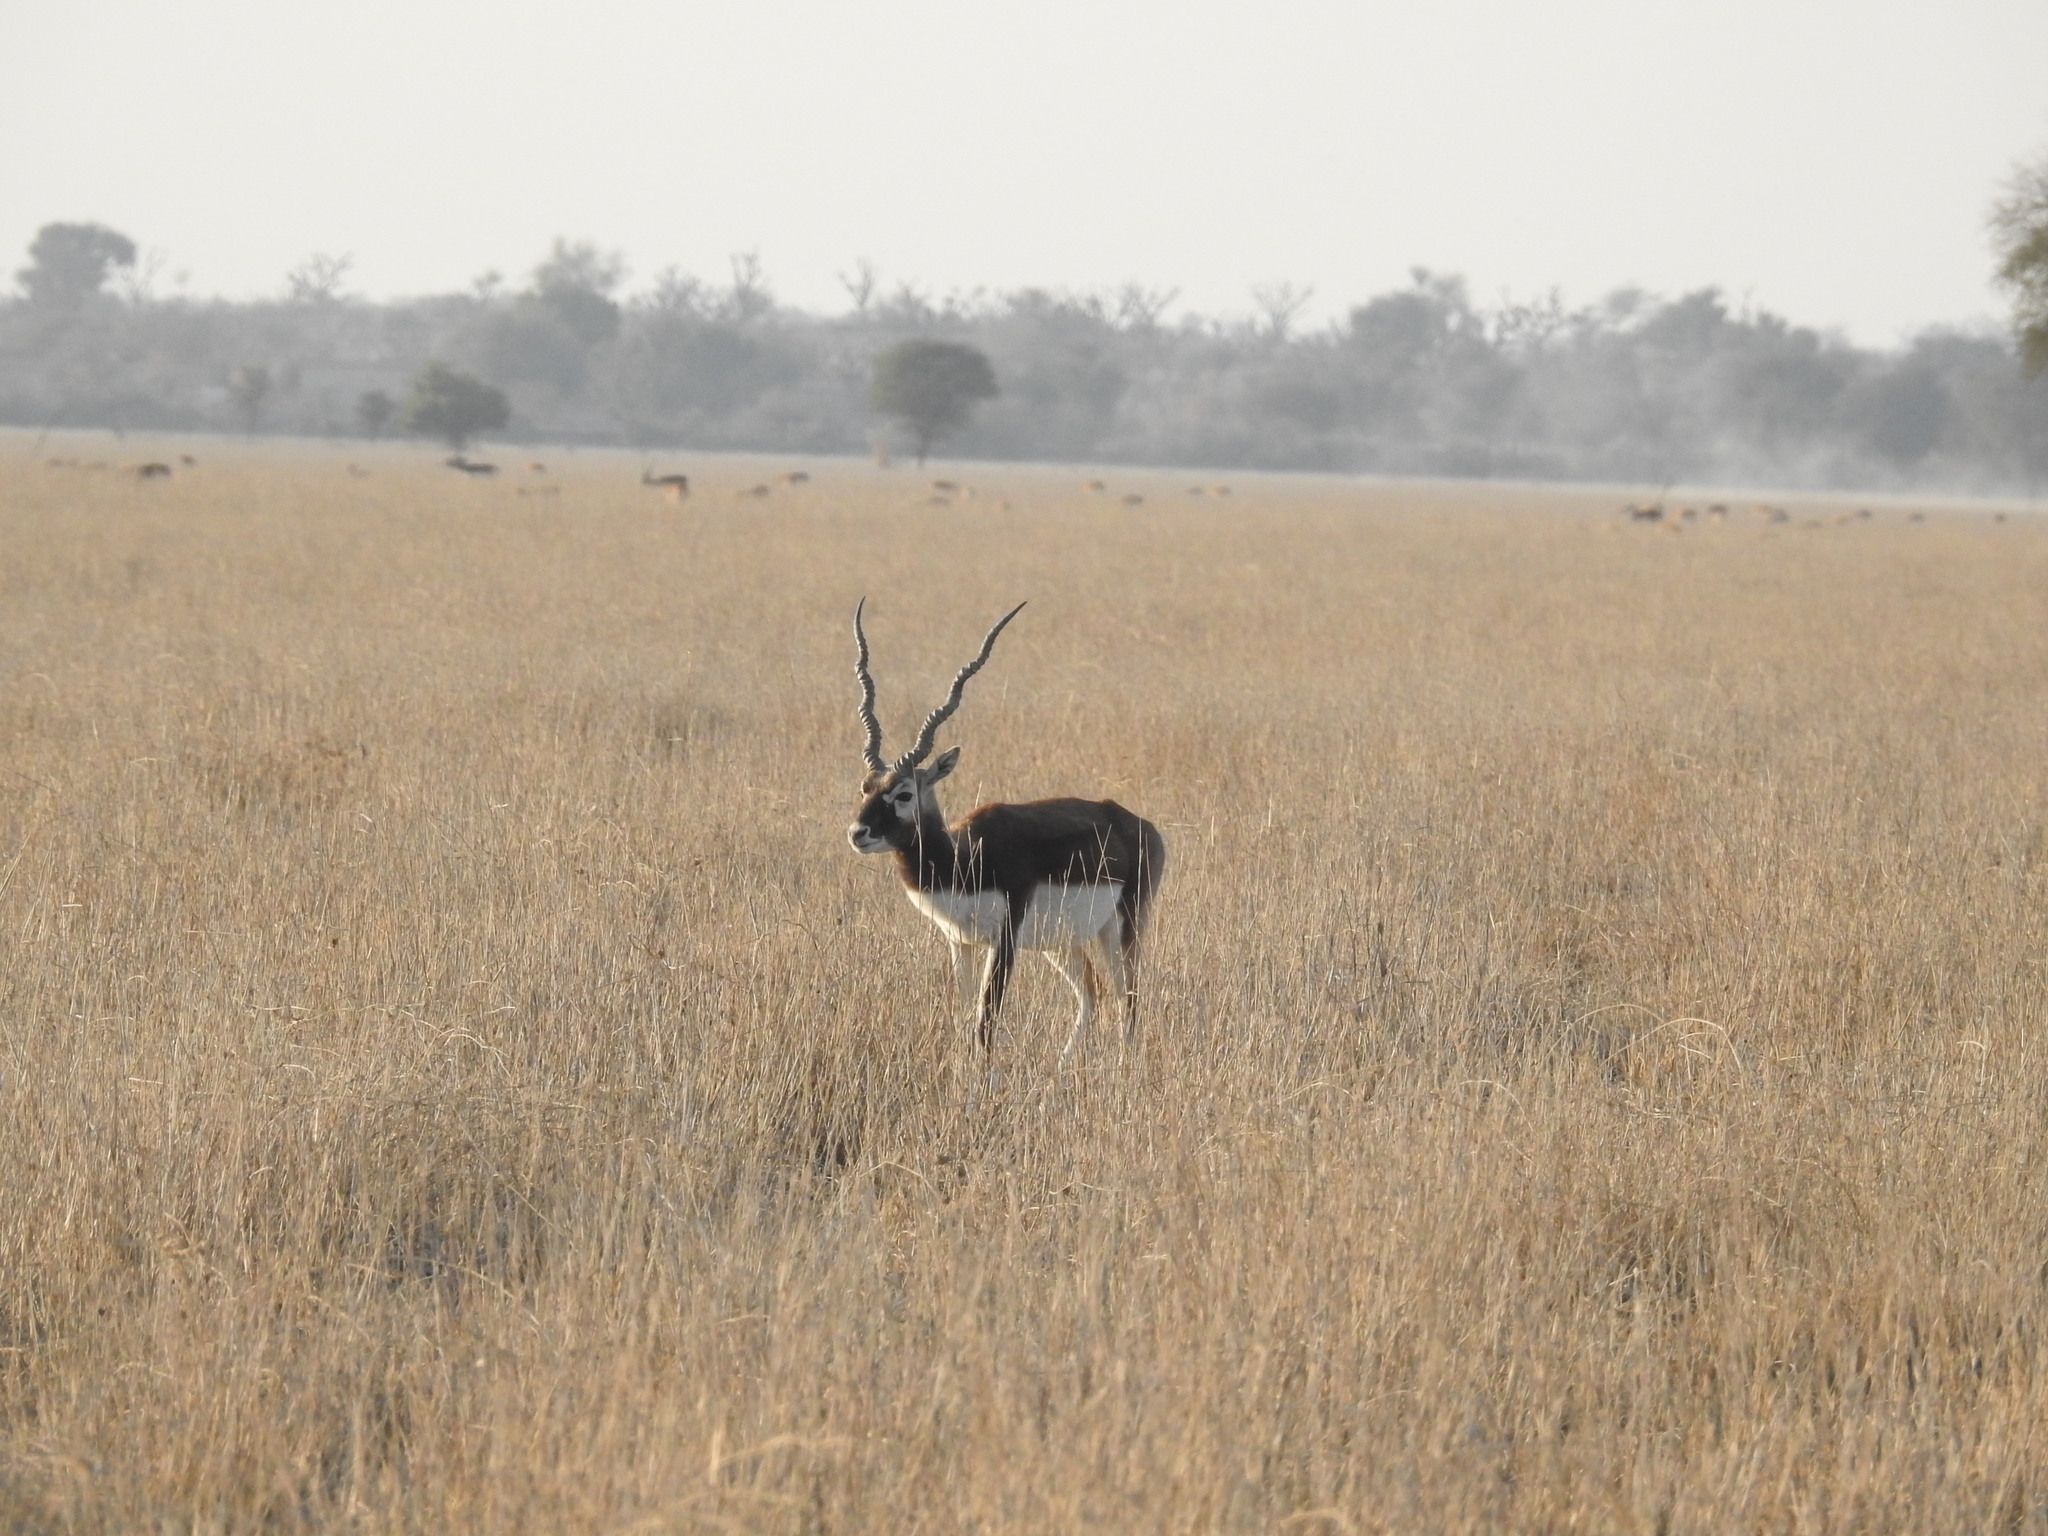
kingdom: Animalia
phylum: Chordata
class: Mammalia
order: Artiodactyla
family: Bovidae
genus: Antilope
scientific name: Antilope cervicapra
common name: Blackbuck
